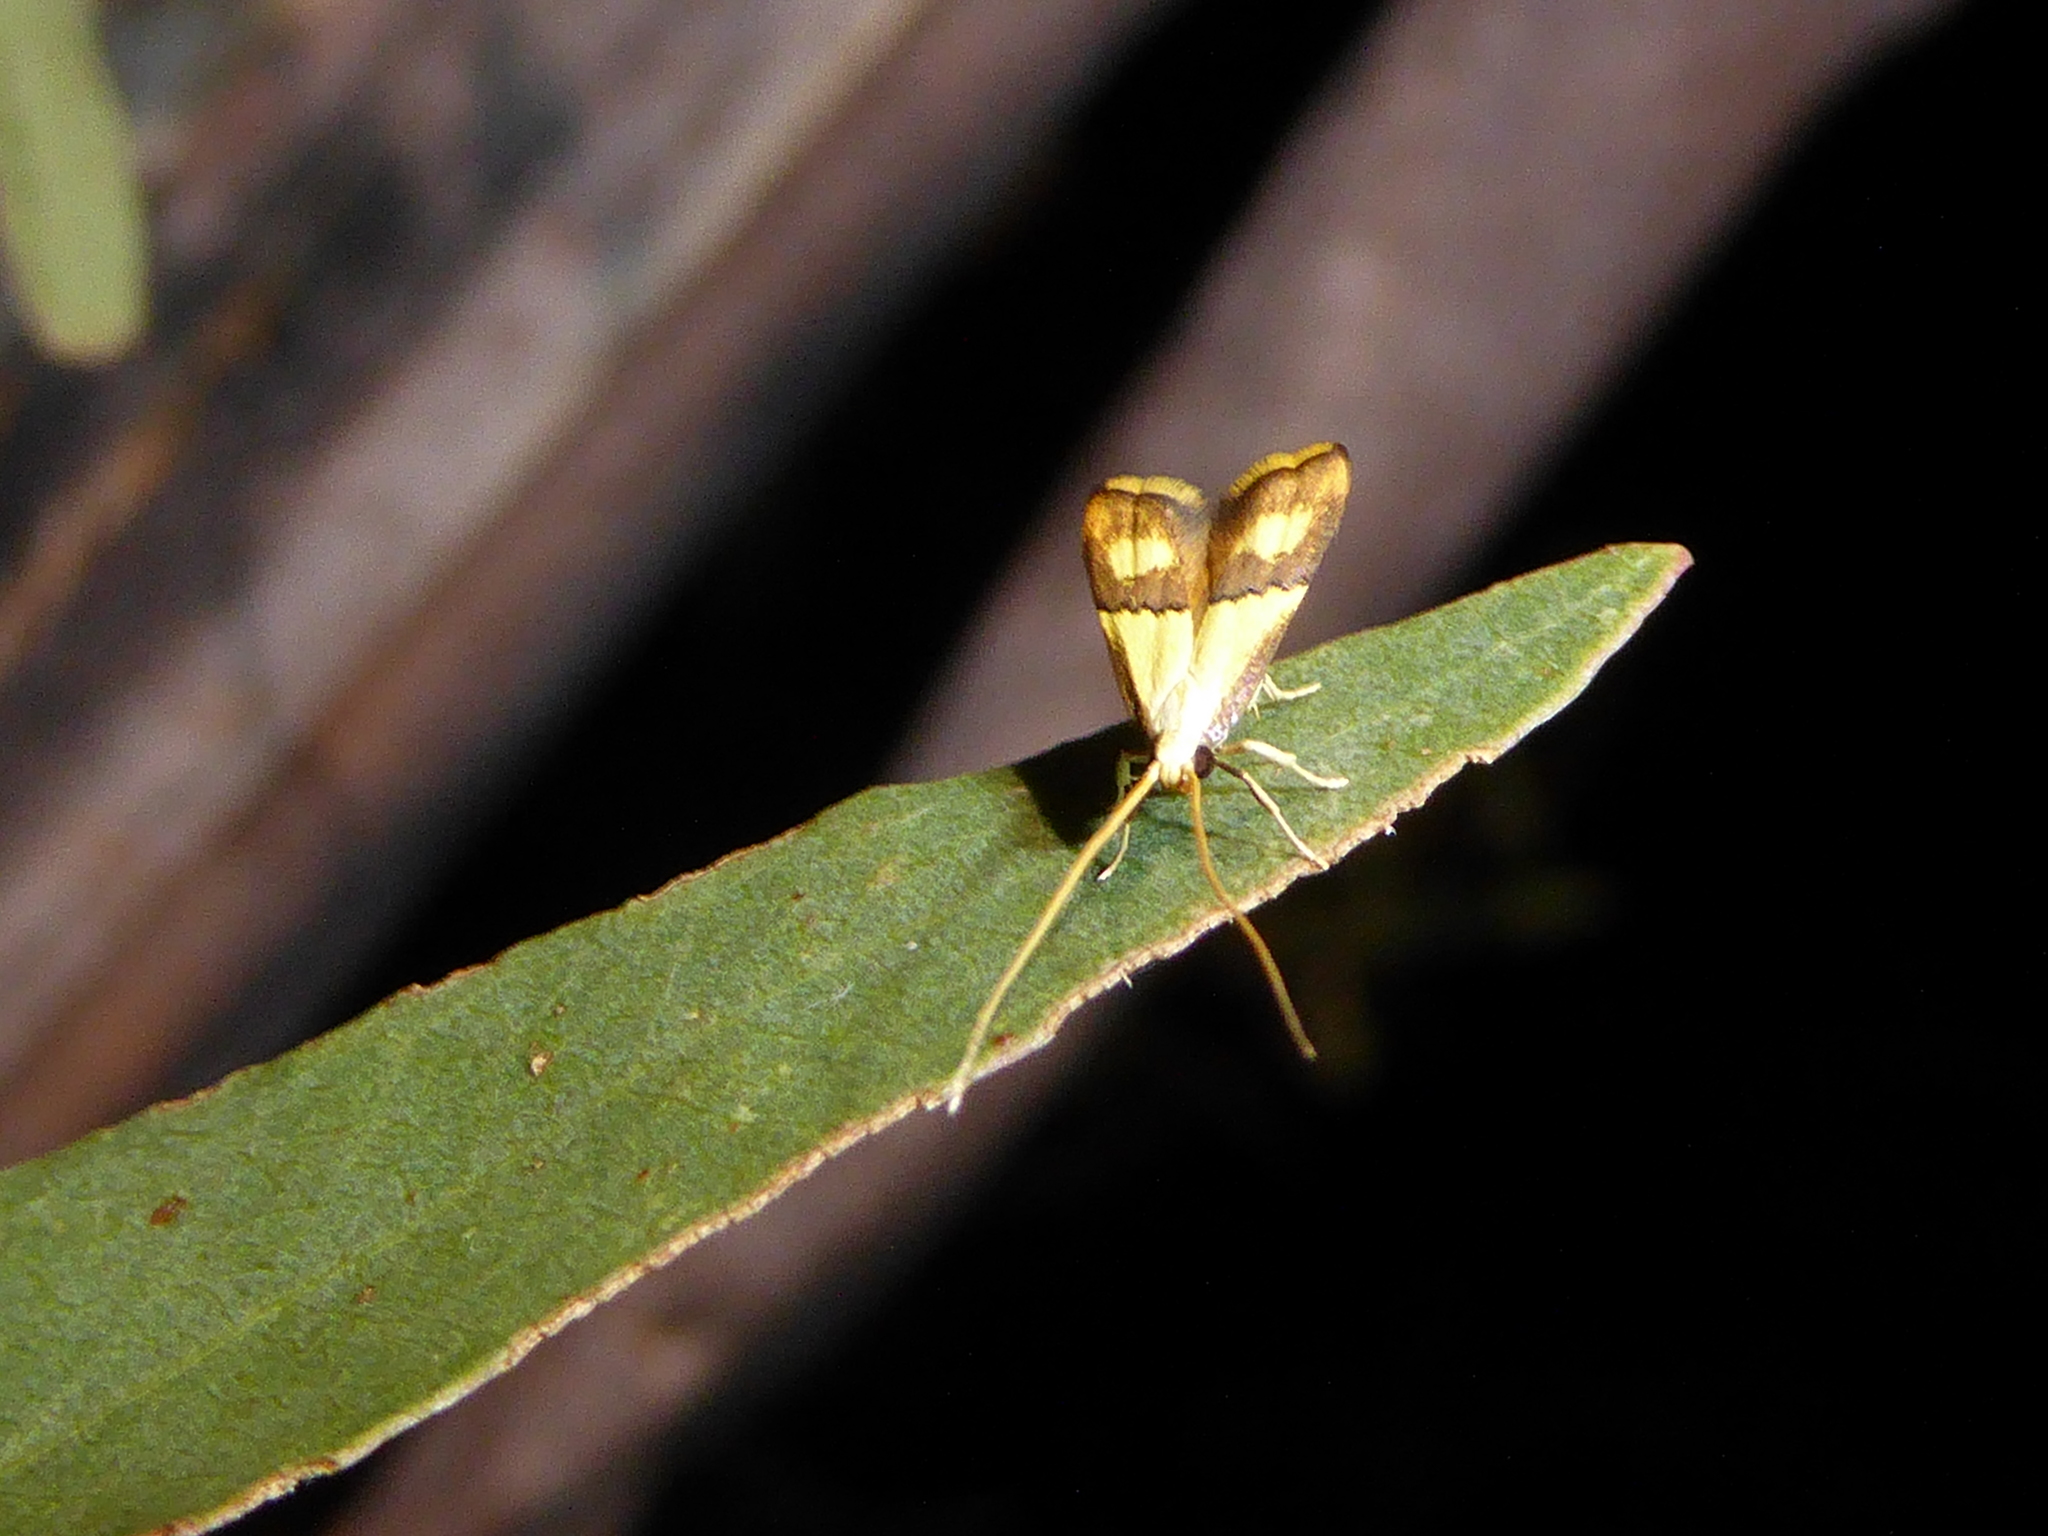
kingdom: Animalia
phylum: Arthropoda
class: Insecta
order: Lepidoptera
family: Lecithoceridae
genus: Crocanthes
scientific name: Crocanthes prasinopis
